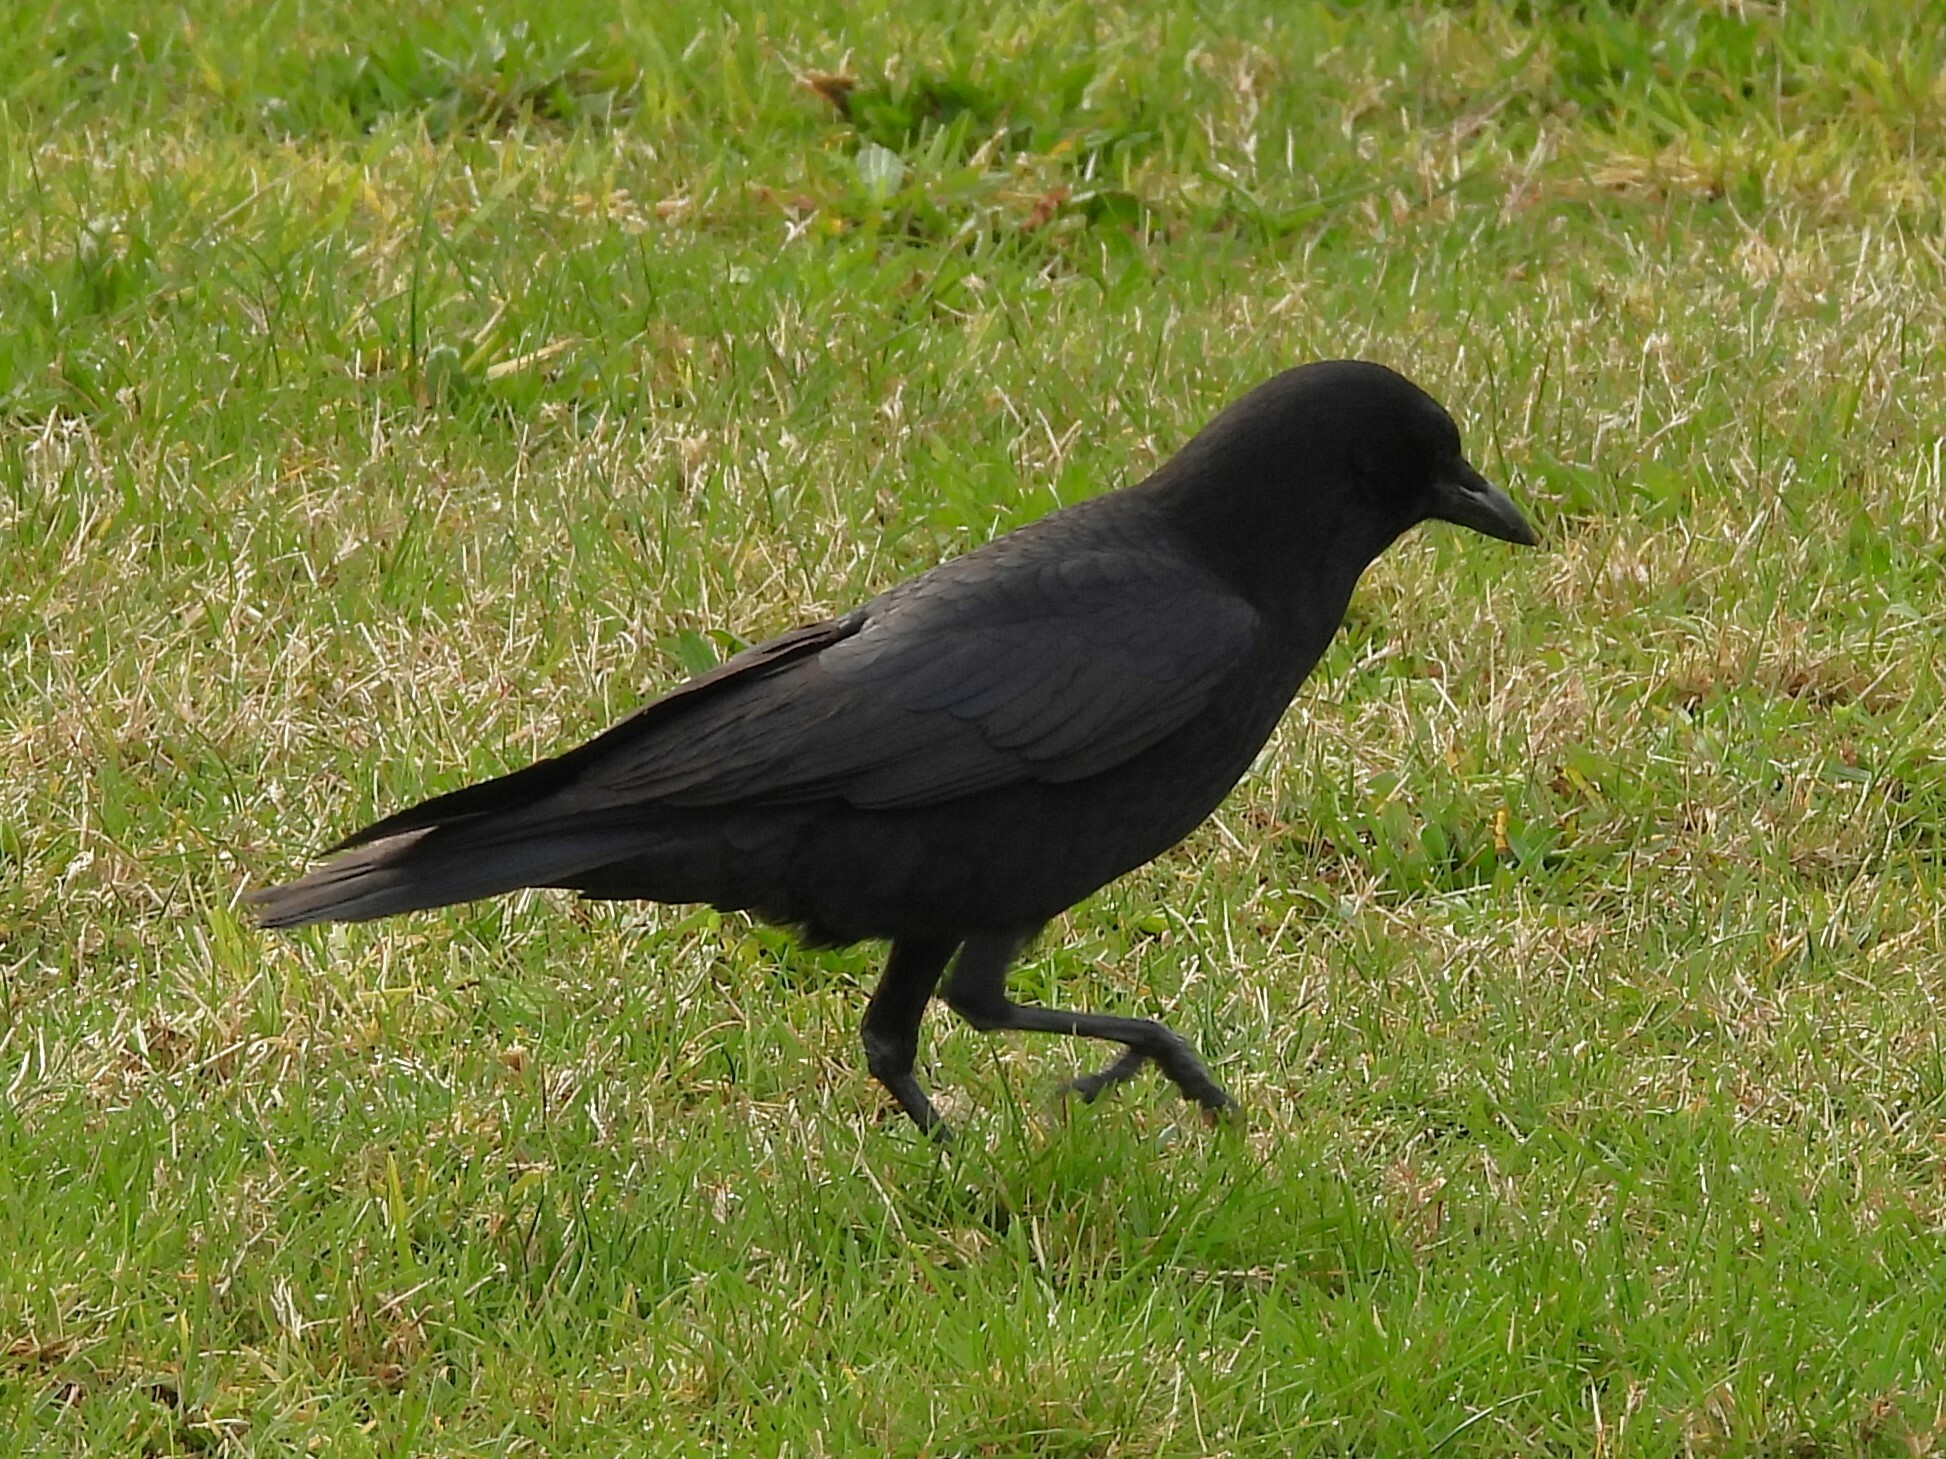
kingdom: Animalia
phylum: Chordata
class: Aves
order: Passeriformes
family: Corvidae
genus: Corvus
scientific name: Corvus brachyrhynchos
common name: American crow
